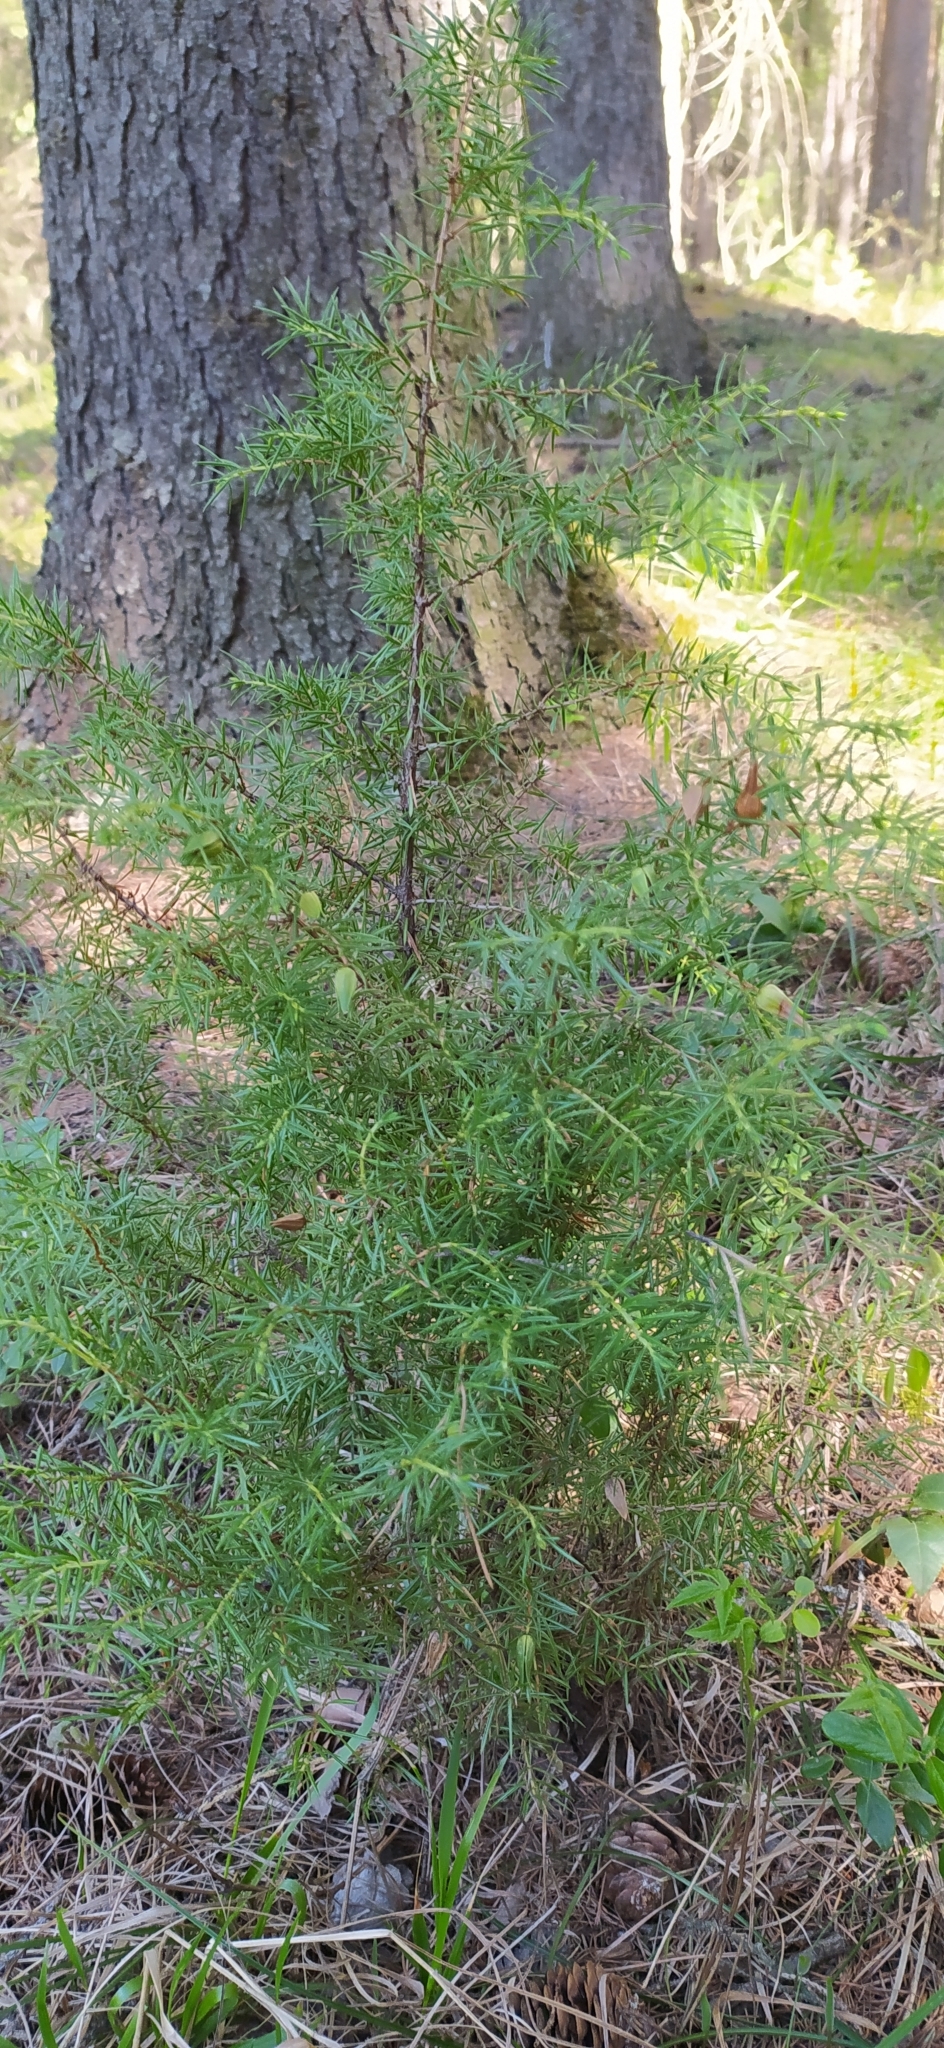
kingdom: Plantae
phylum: Tracheophyta
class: Pinopsida
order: Pinales
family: Cupressaceae
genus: Juniperus
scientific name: Juniperus communis
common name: Common juniper
